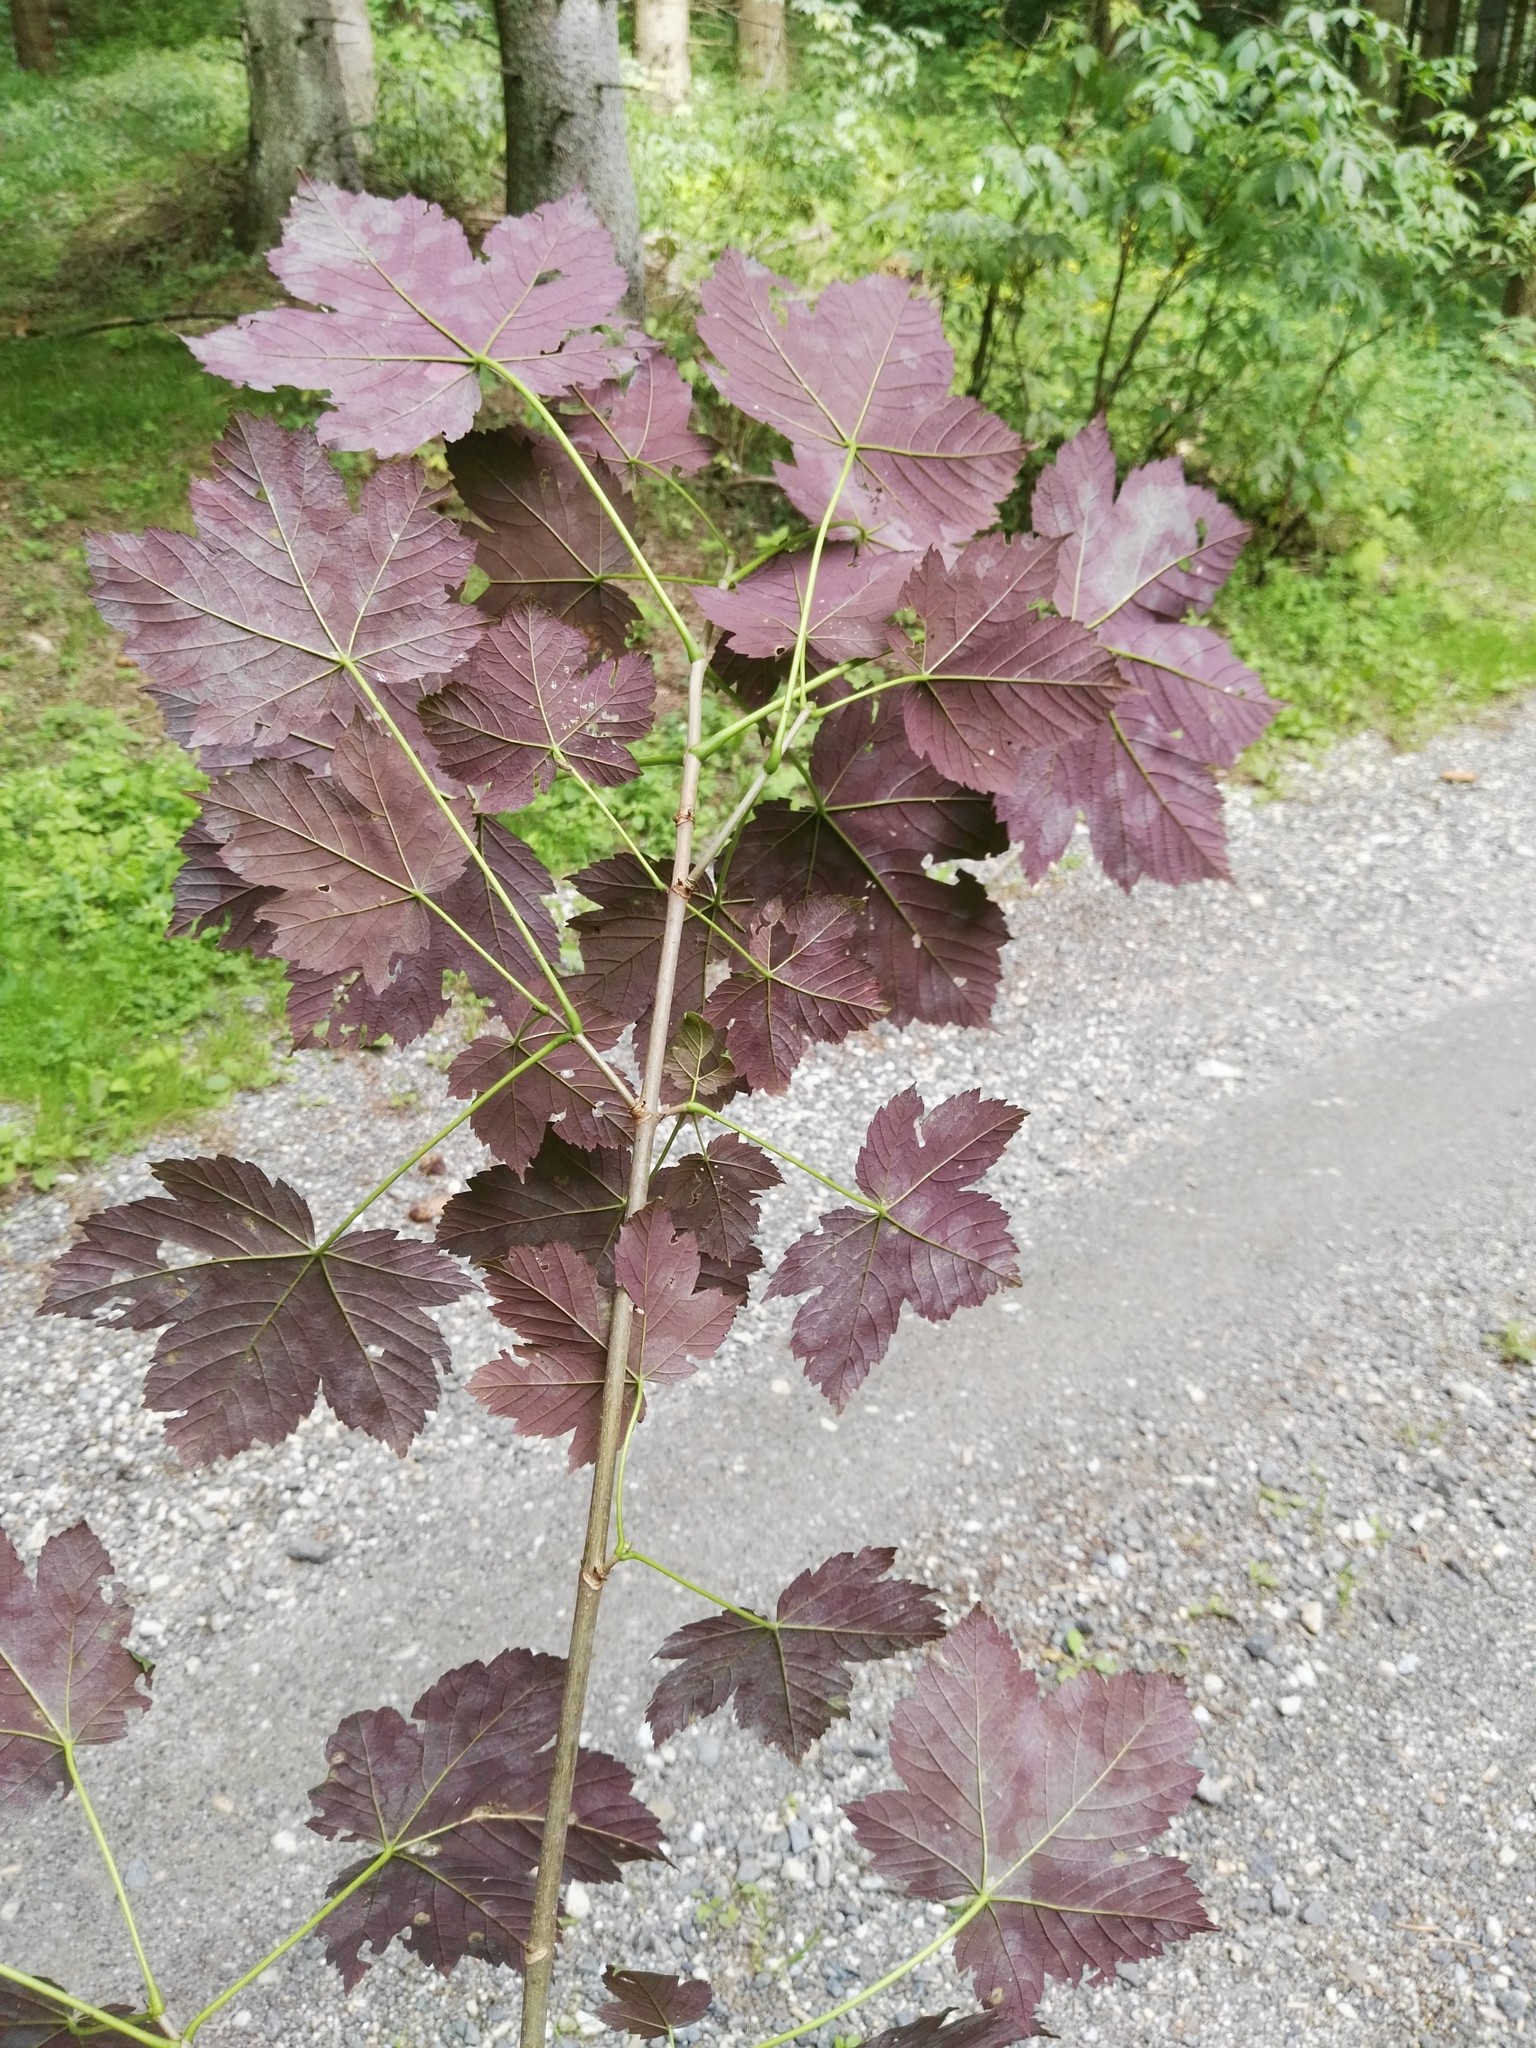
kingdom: Plantae
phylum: Tracheophyta
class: Magnoliopsida
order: Sapindales
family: Sapindaceae
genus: Acer
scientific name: Acer pseudoplatanus
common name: Sycamore
